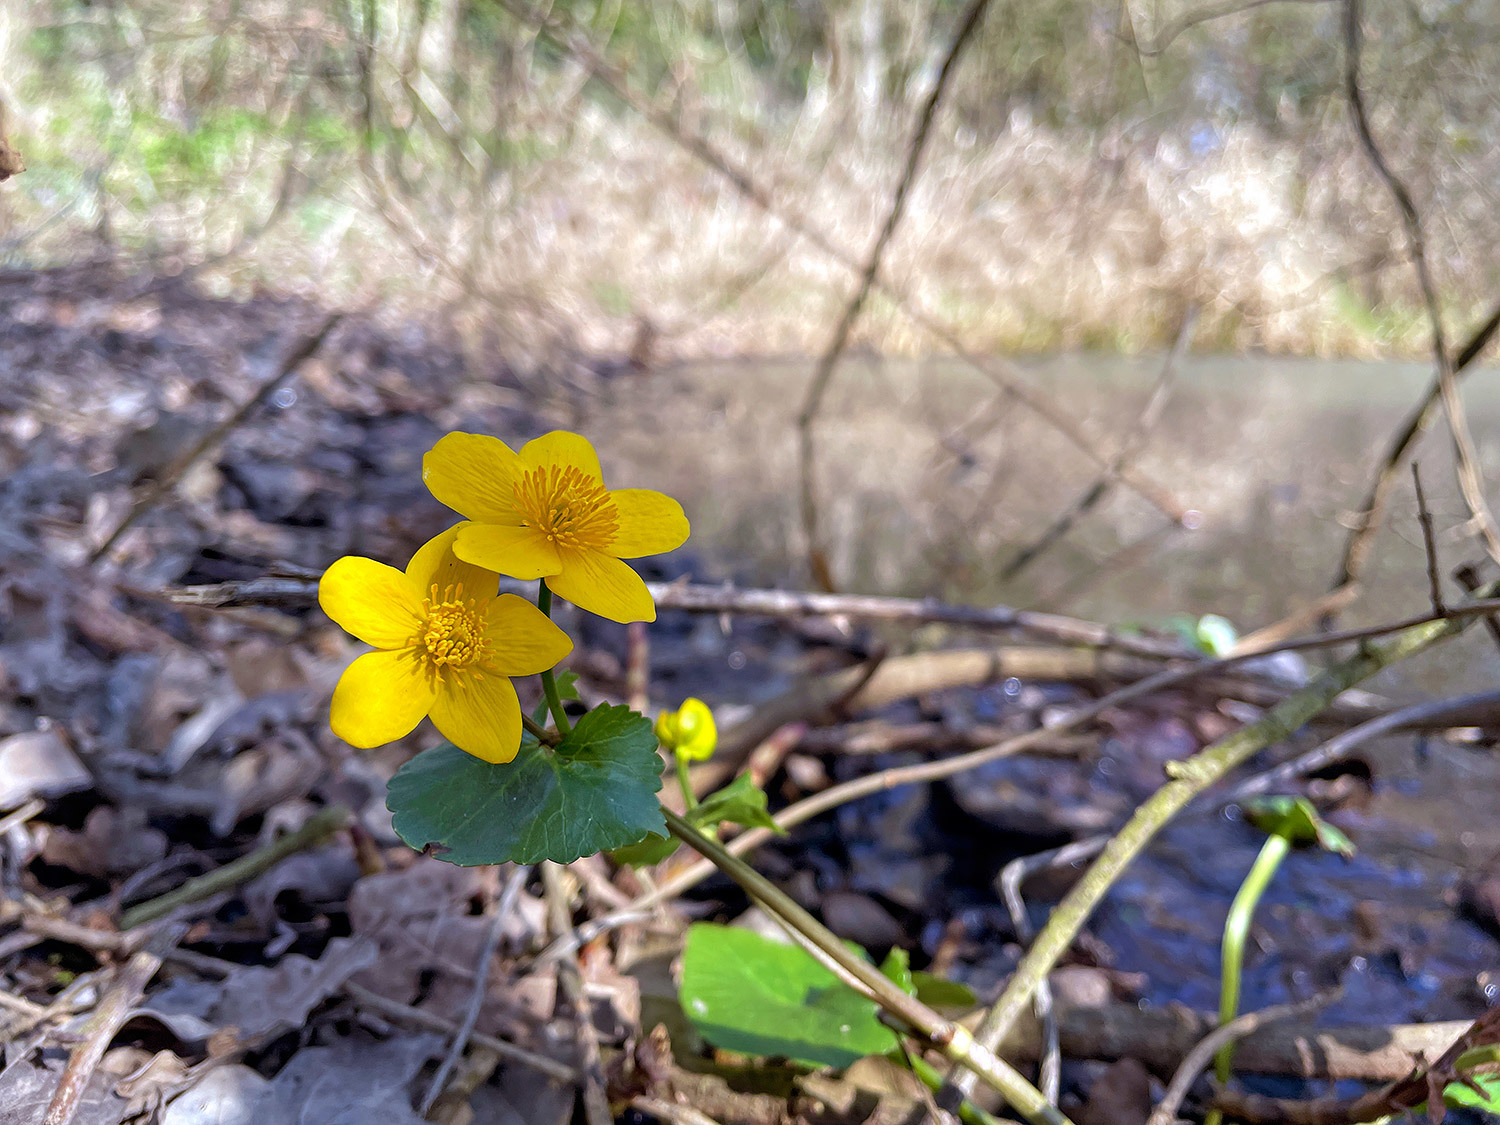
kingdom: Plantae
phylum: Tracheophyta
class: Magnoliopsida
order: Ranunculales
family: Ranunculaceae
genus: Caltha
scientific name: Caltha palustris
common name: Marsh marigold
